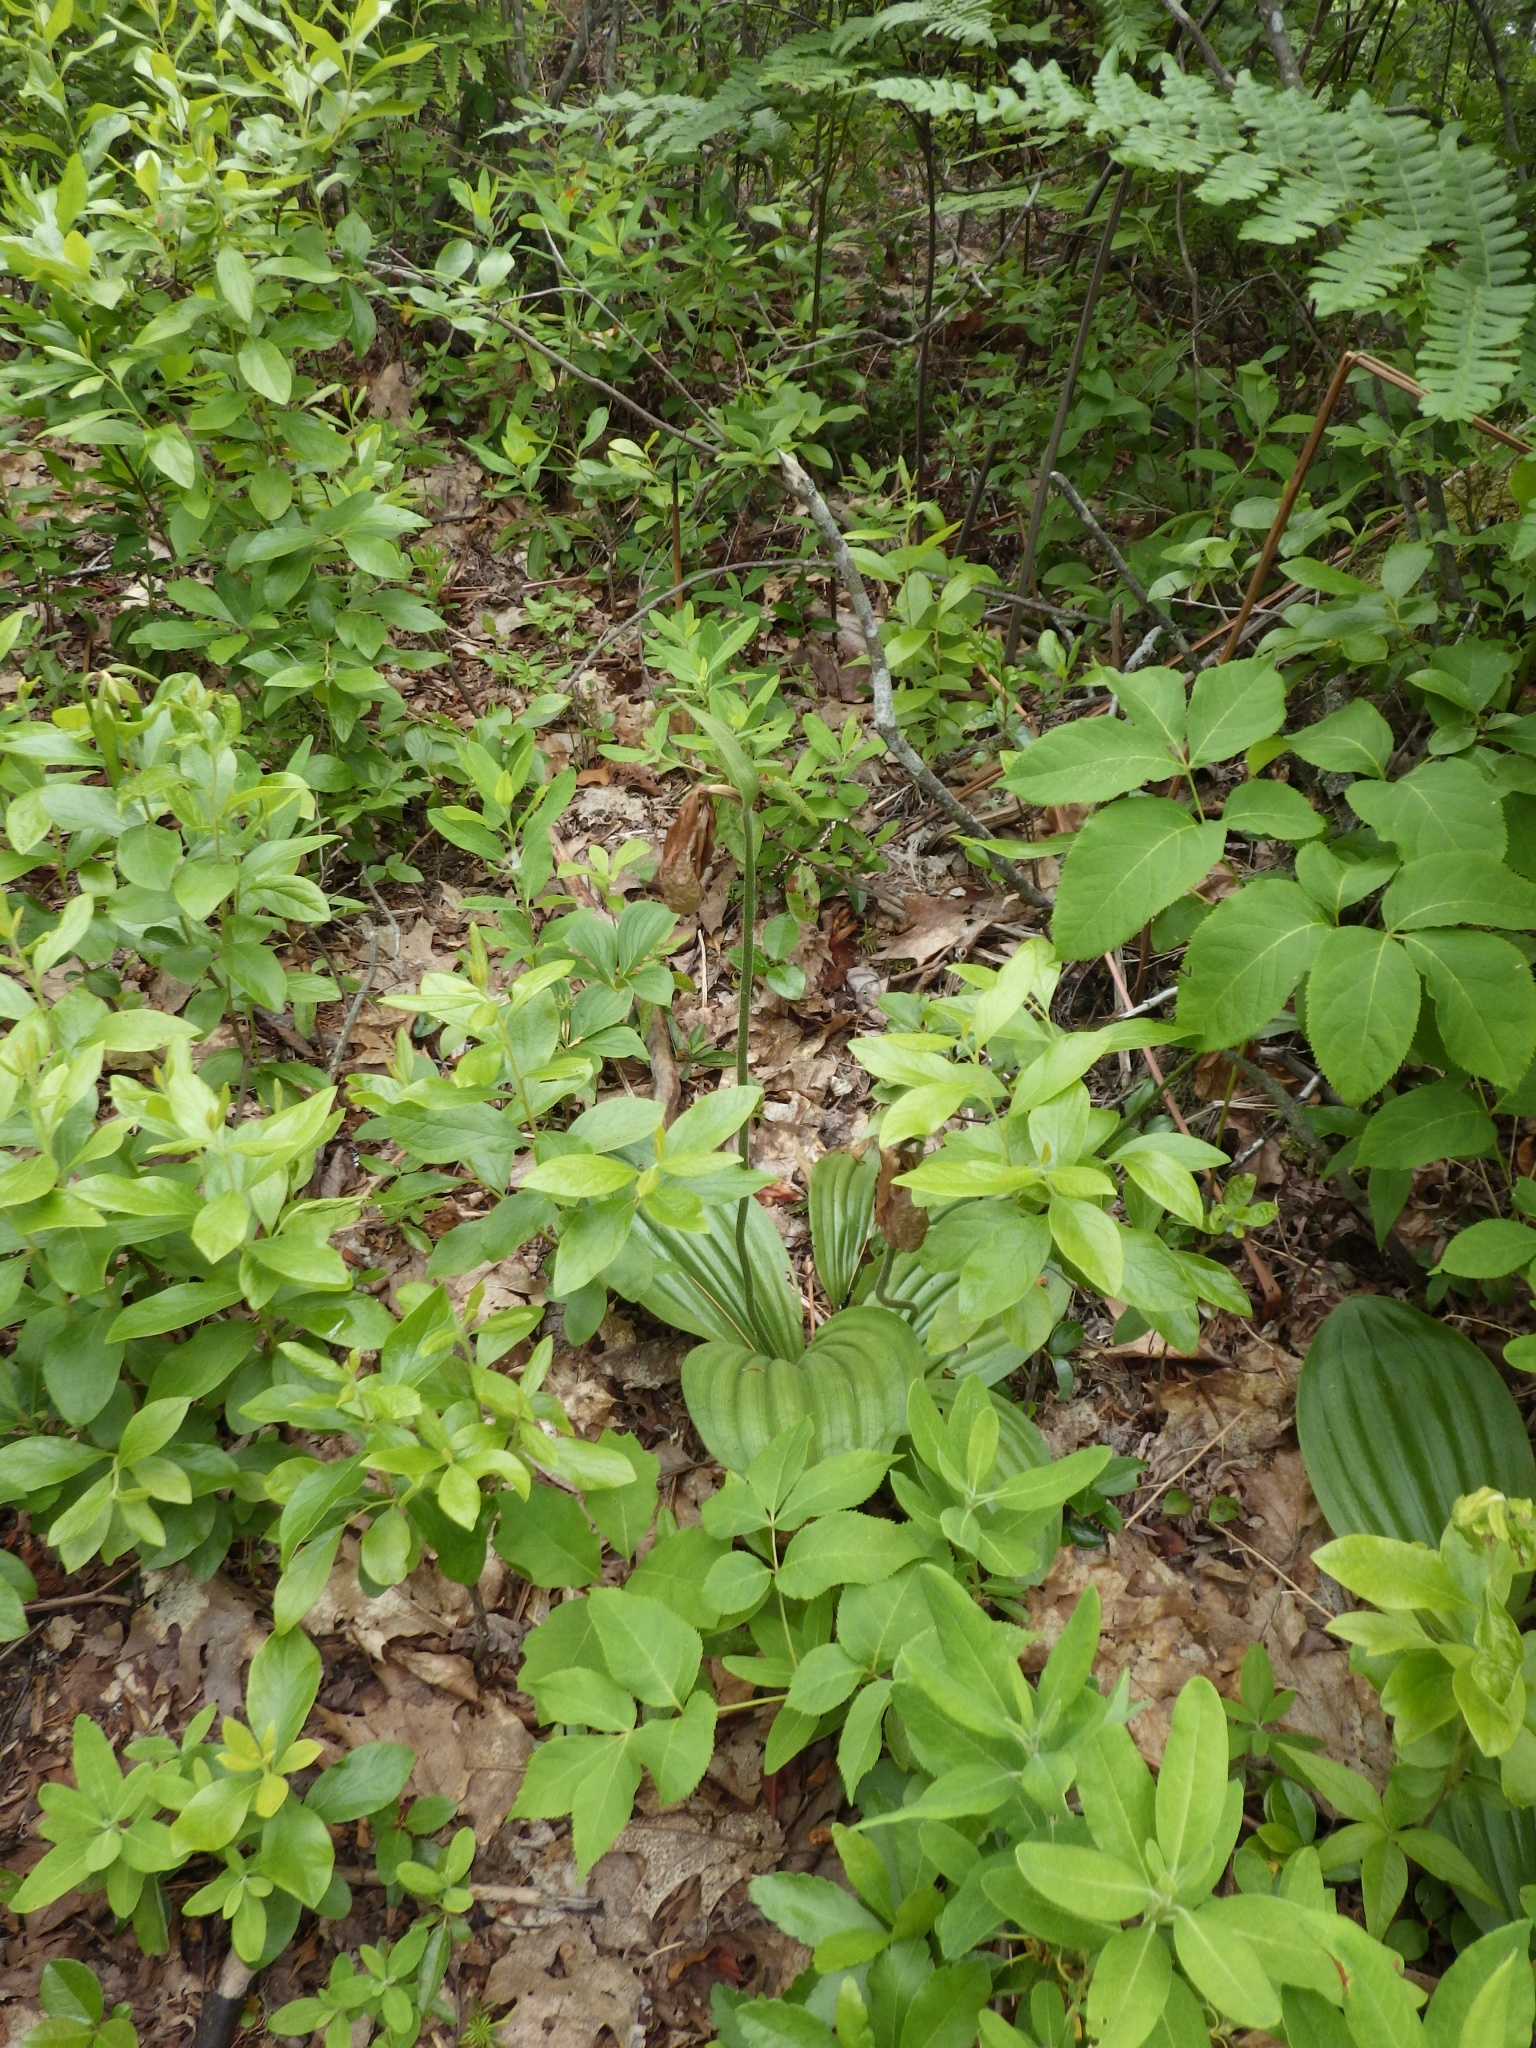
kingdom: Plantae
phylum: Tracheophyta
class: Liliopsida
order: Asparagales
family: Orchidaceae
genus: Cypripedium
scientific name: Cypripedium acaule
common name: Pink lady's-slipper
